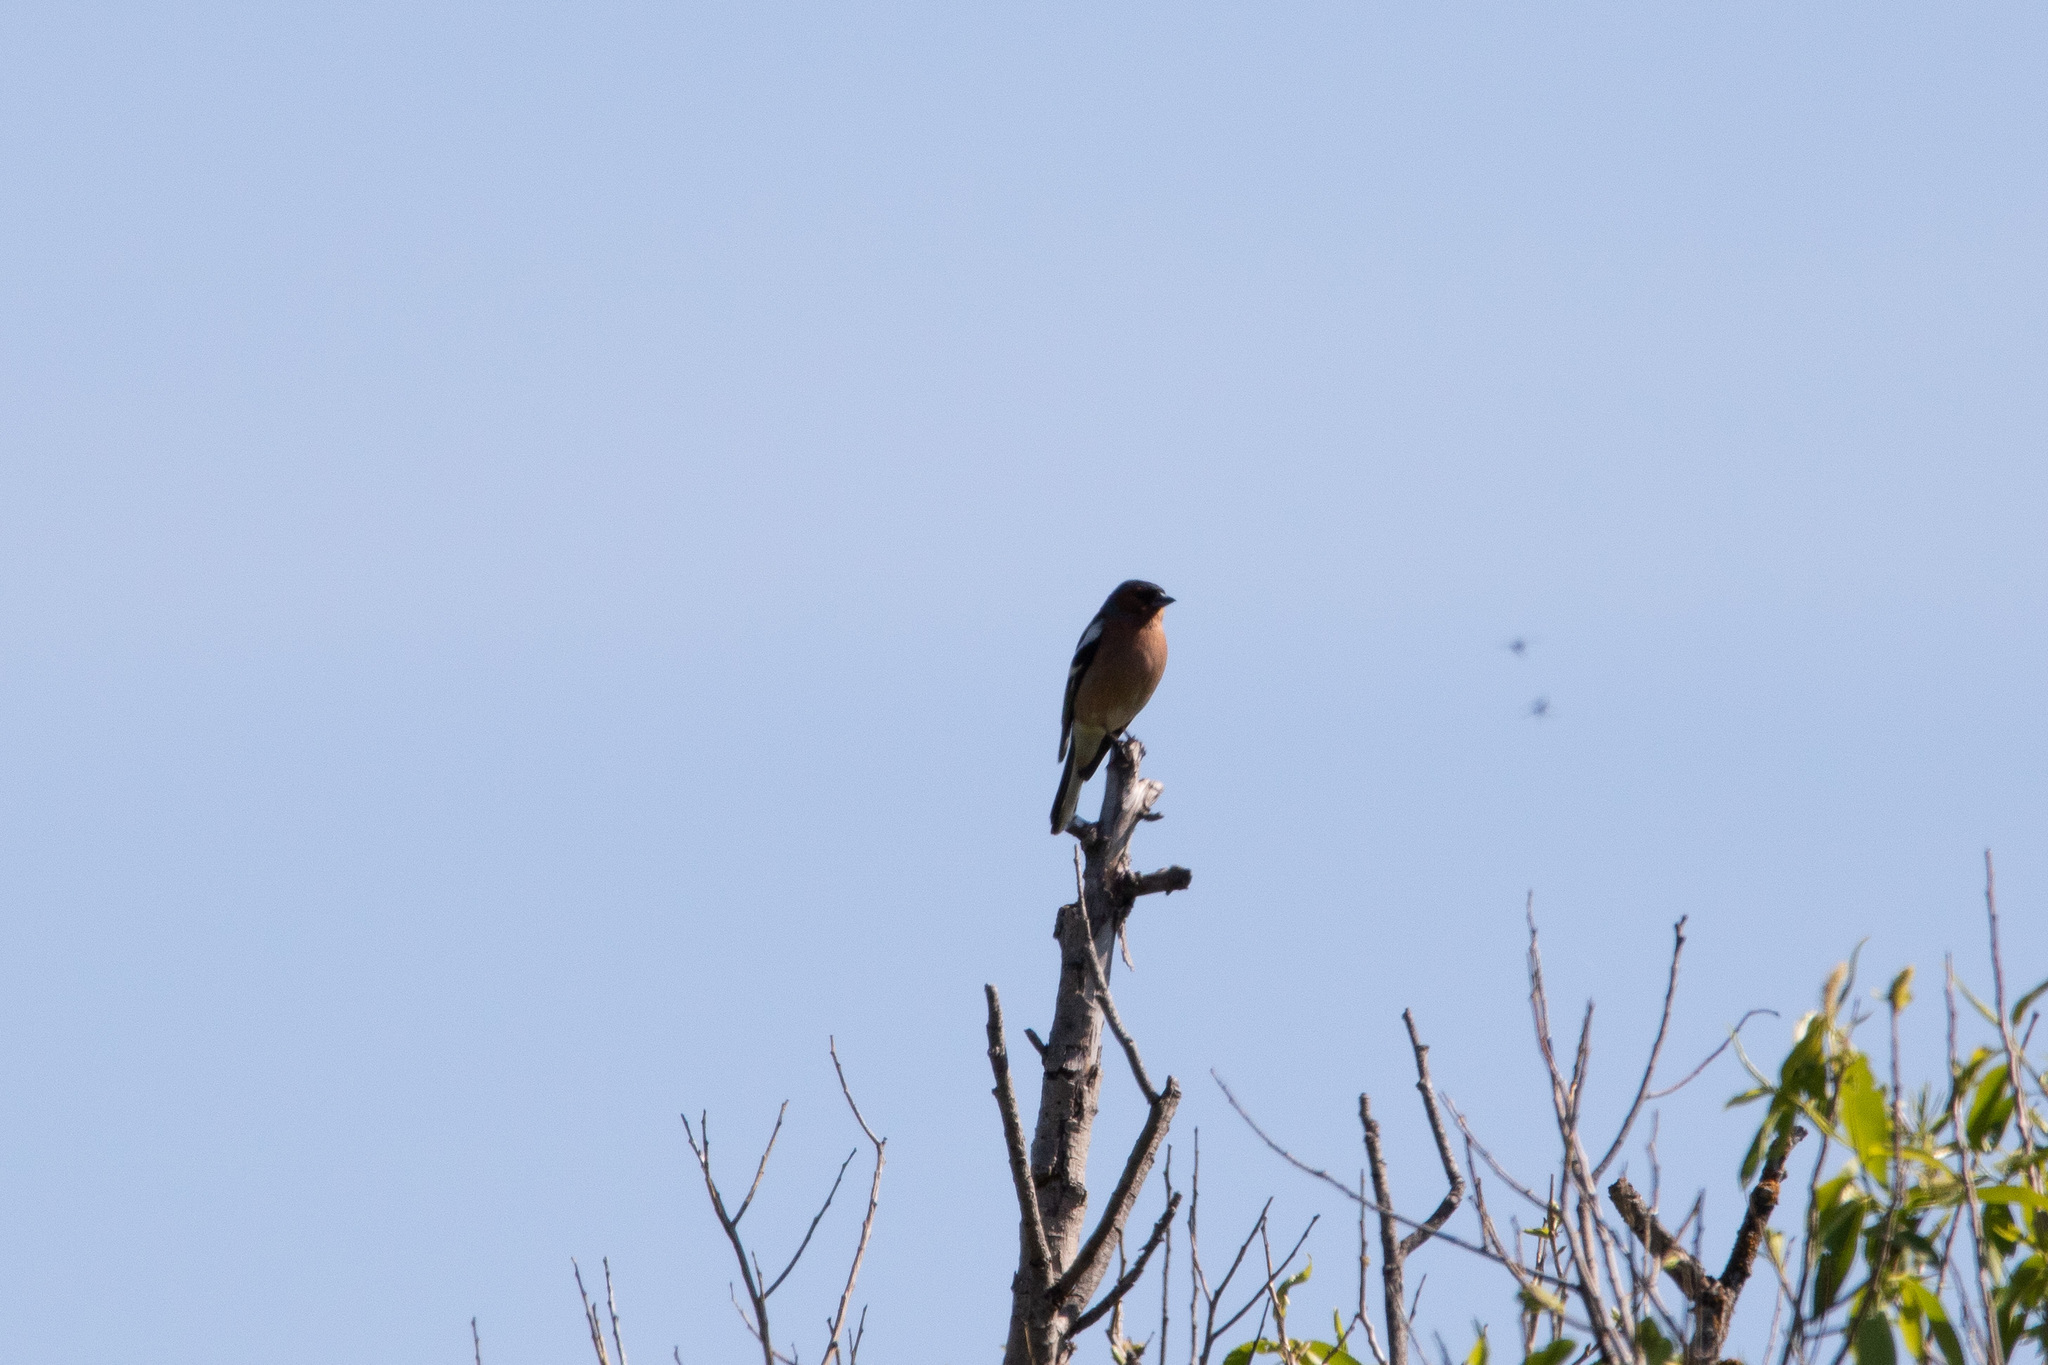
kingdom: Animalia
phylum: Chordata
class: Aves
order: Passeriformes
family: Fringillidae
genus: Fringilla
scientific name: Fringilla coelebs
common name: Common chaffinch
